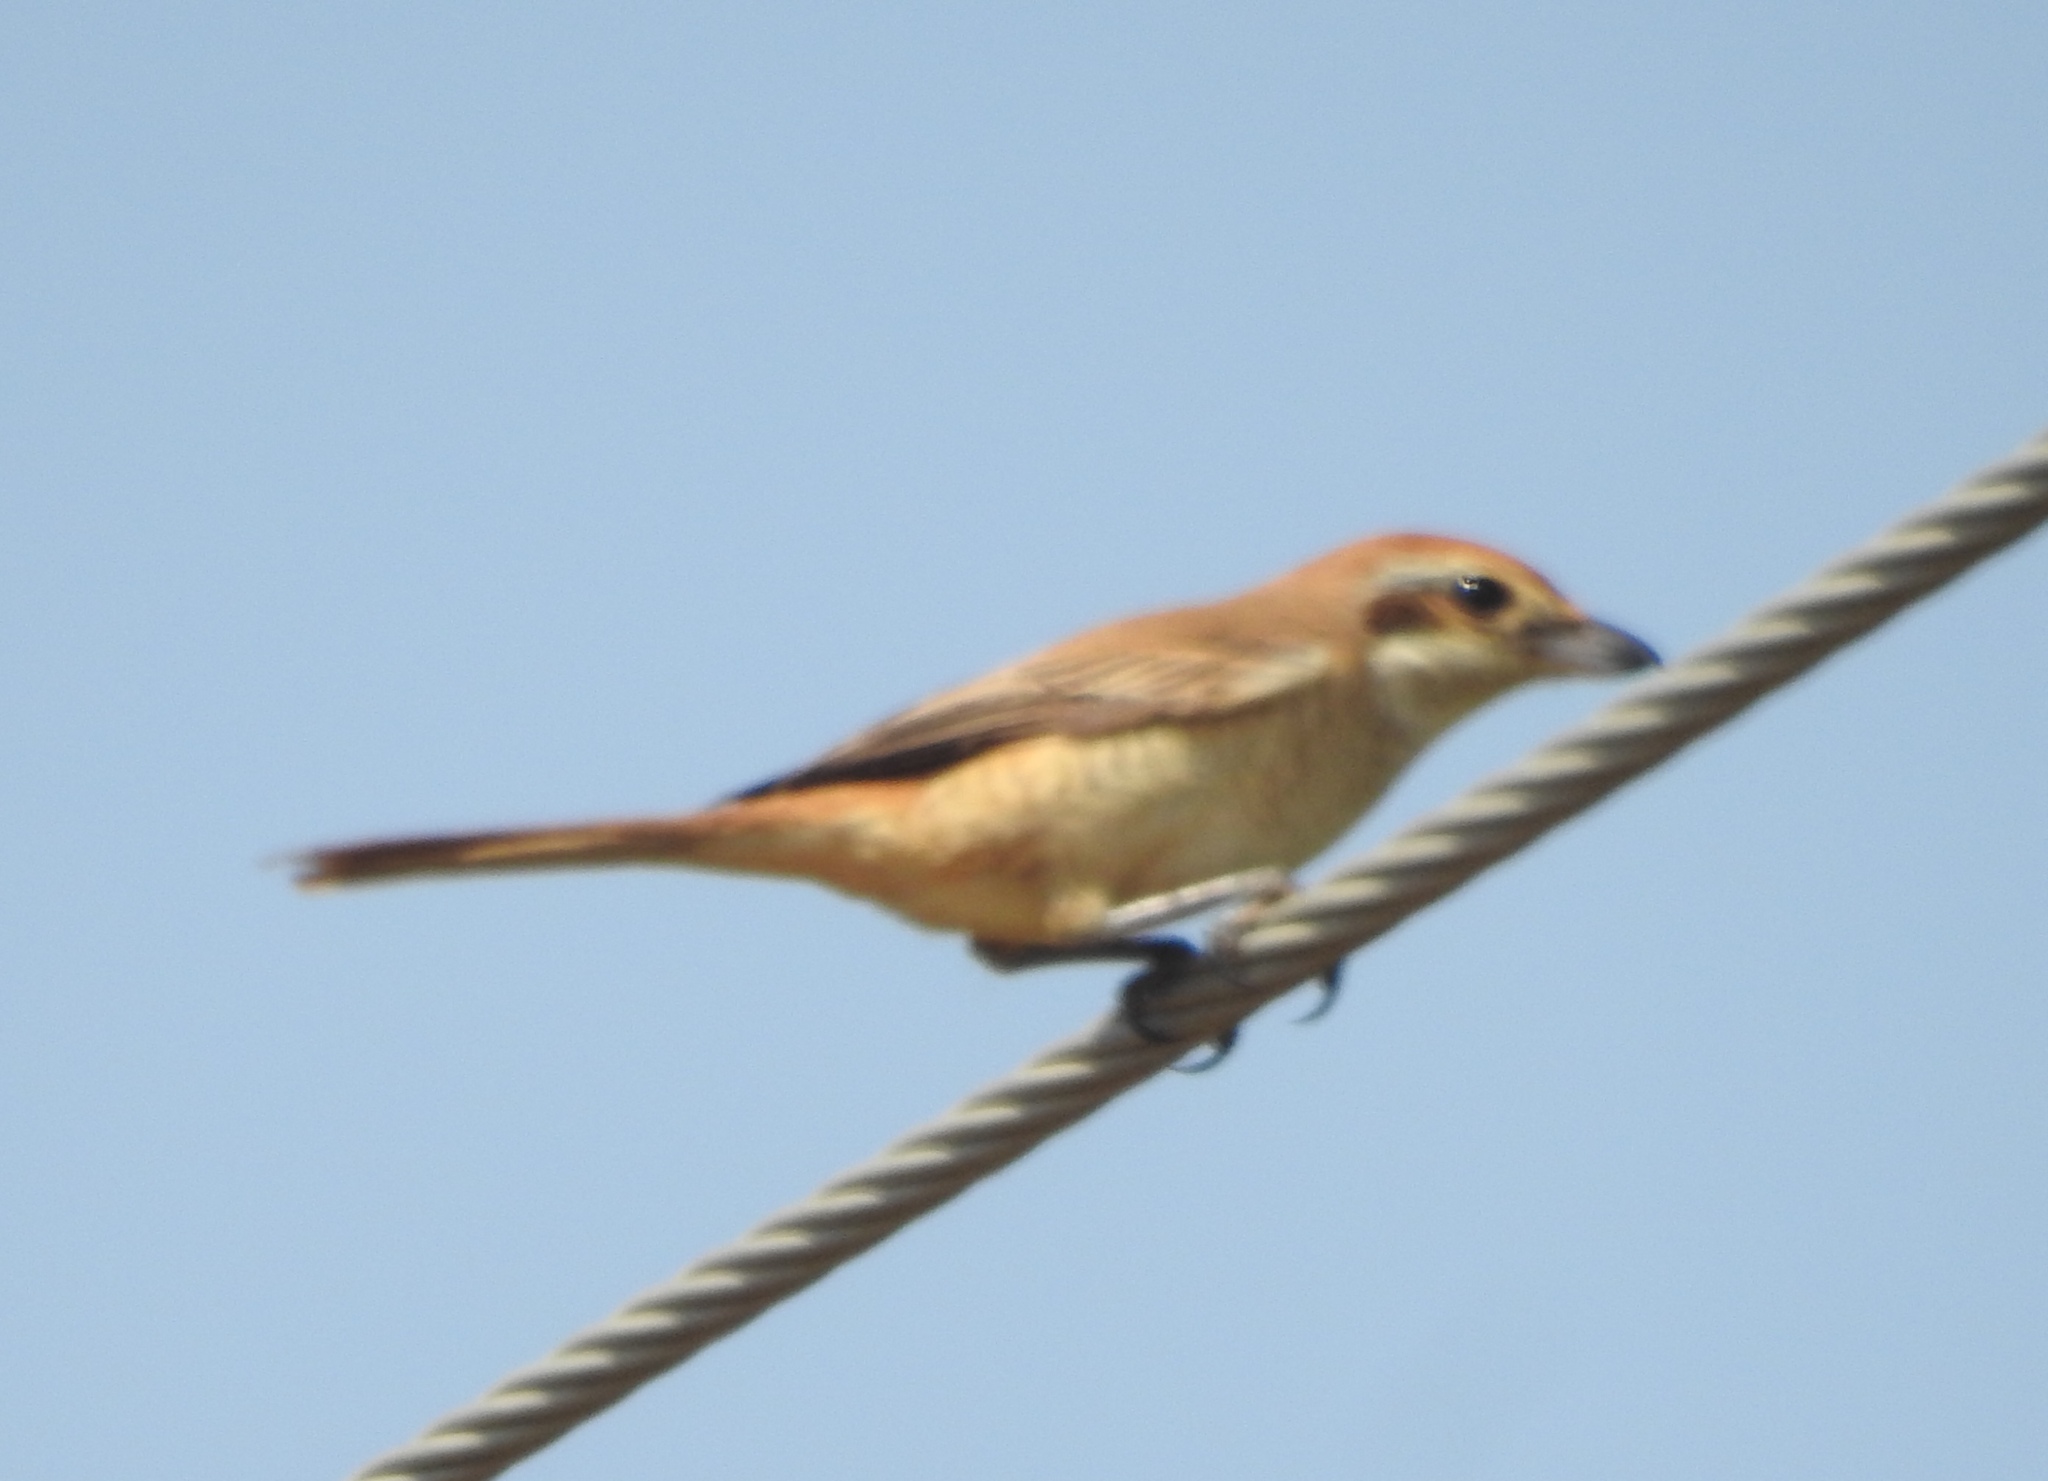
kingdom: Animalia
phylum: Chordata
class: Aves
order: Passeriformes
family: Laniidae
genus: Lanius
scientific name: Lanius cristatus
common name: Brown shrike
